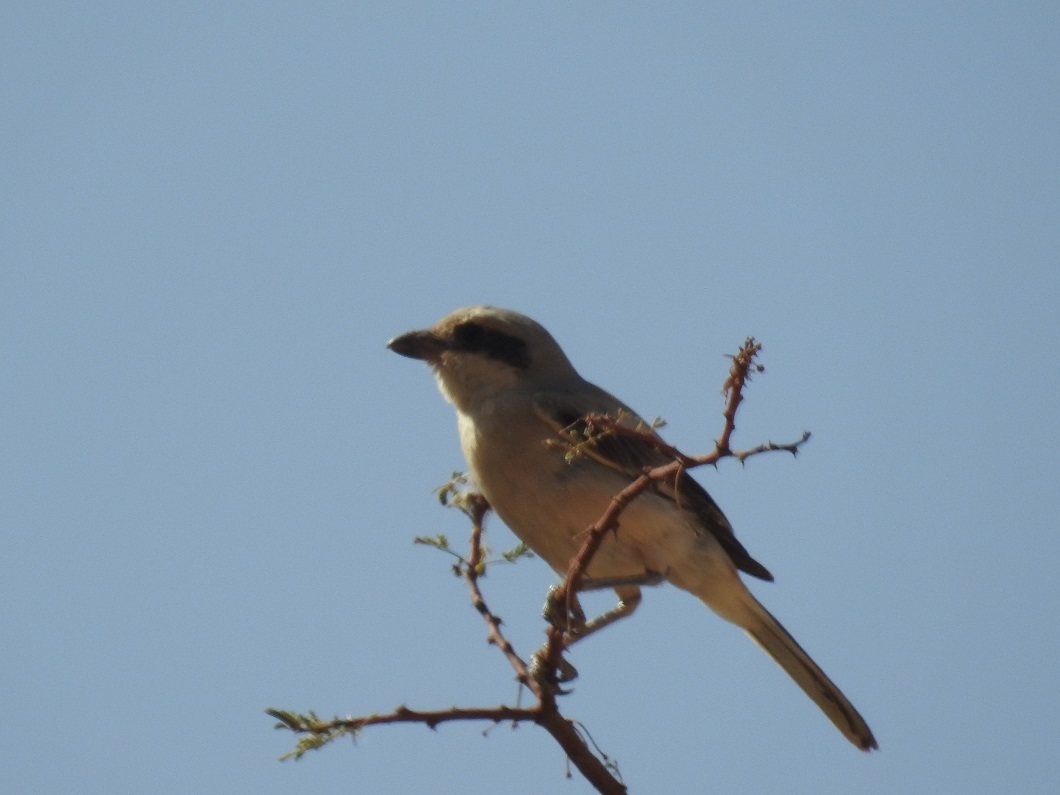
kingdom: Animalia
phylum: Chordata
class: Aves
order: Passeriformes
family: Laniidae
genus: Lanius
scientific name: Lanius excubitor
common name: Great grey shrike
